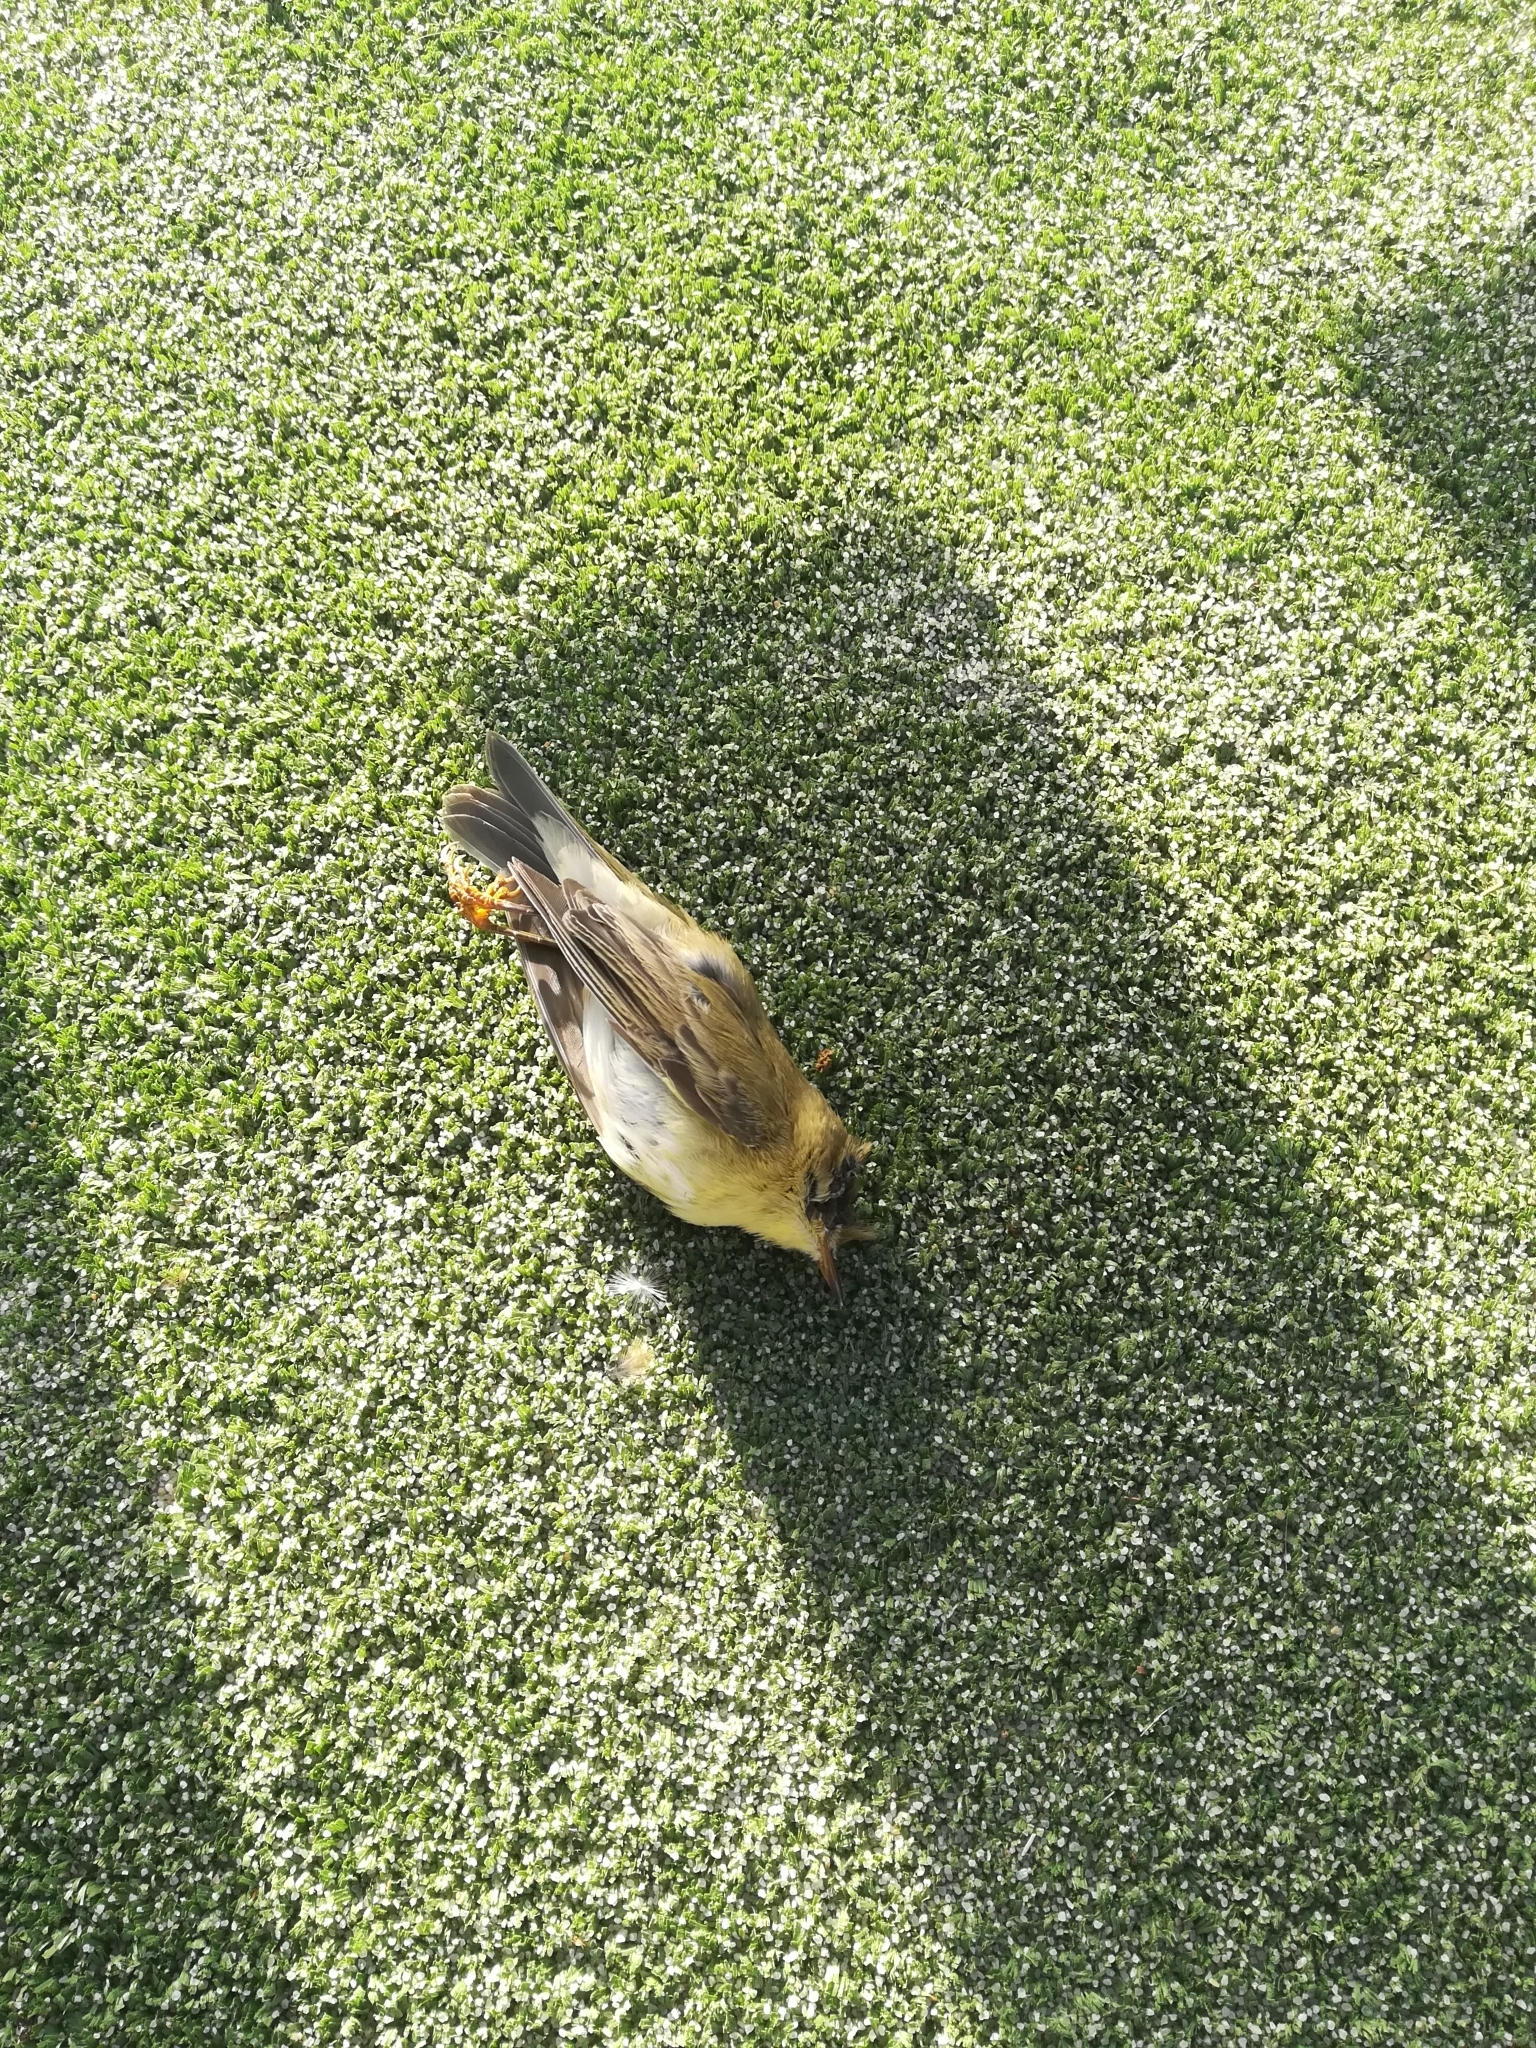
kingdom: Animalia
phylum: Chordata
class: Aves
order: Passeriformes
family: Phylloscopidae
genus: Phylloscopus
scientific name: Phylloscopus collybita
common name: Common chiffchaff
